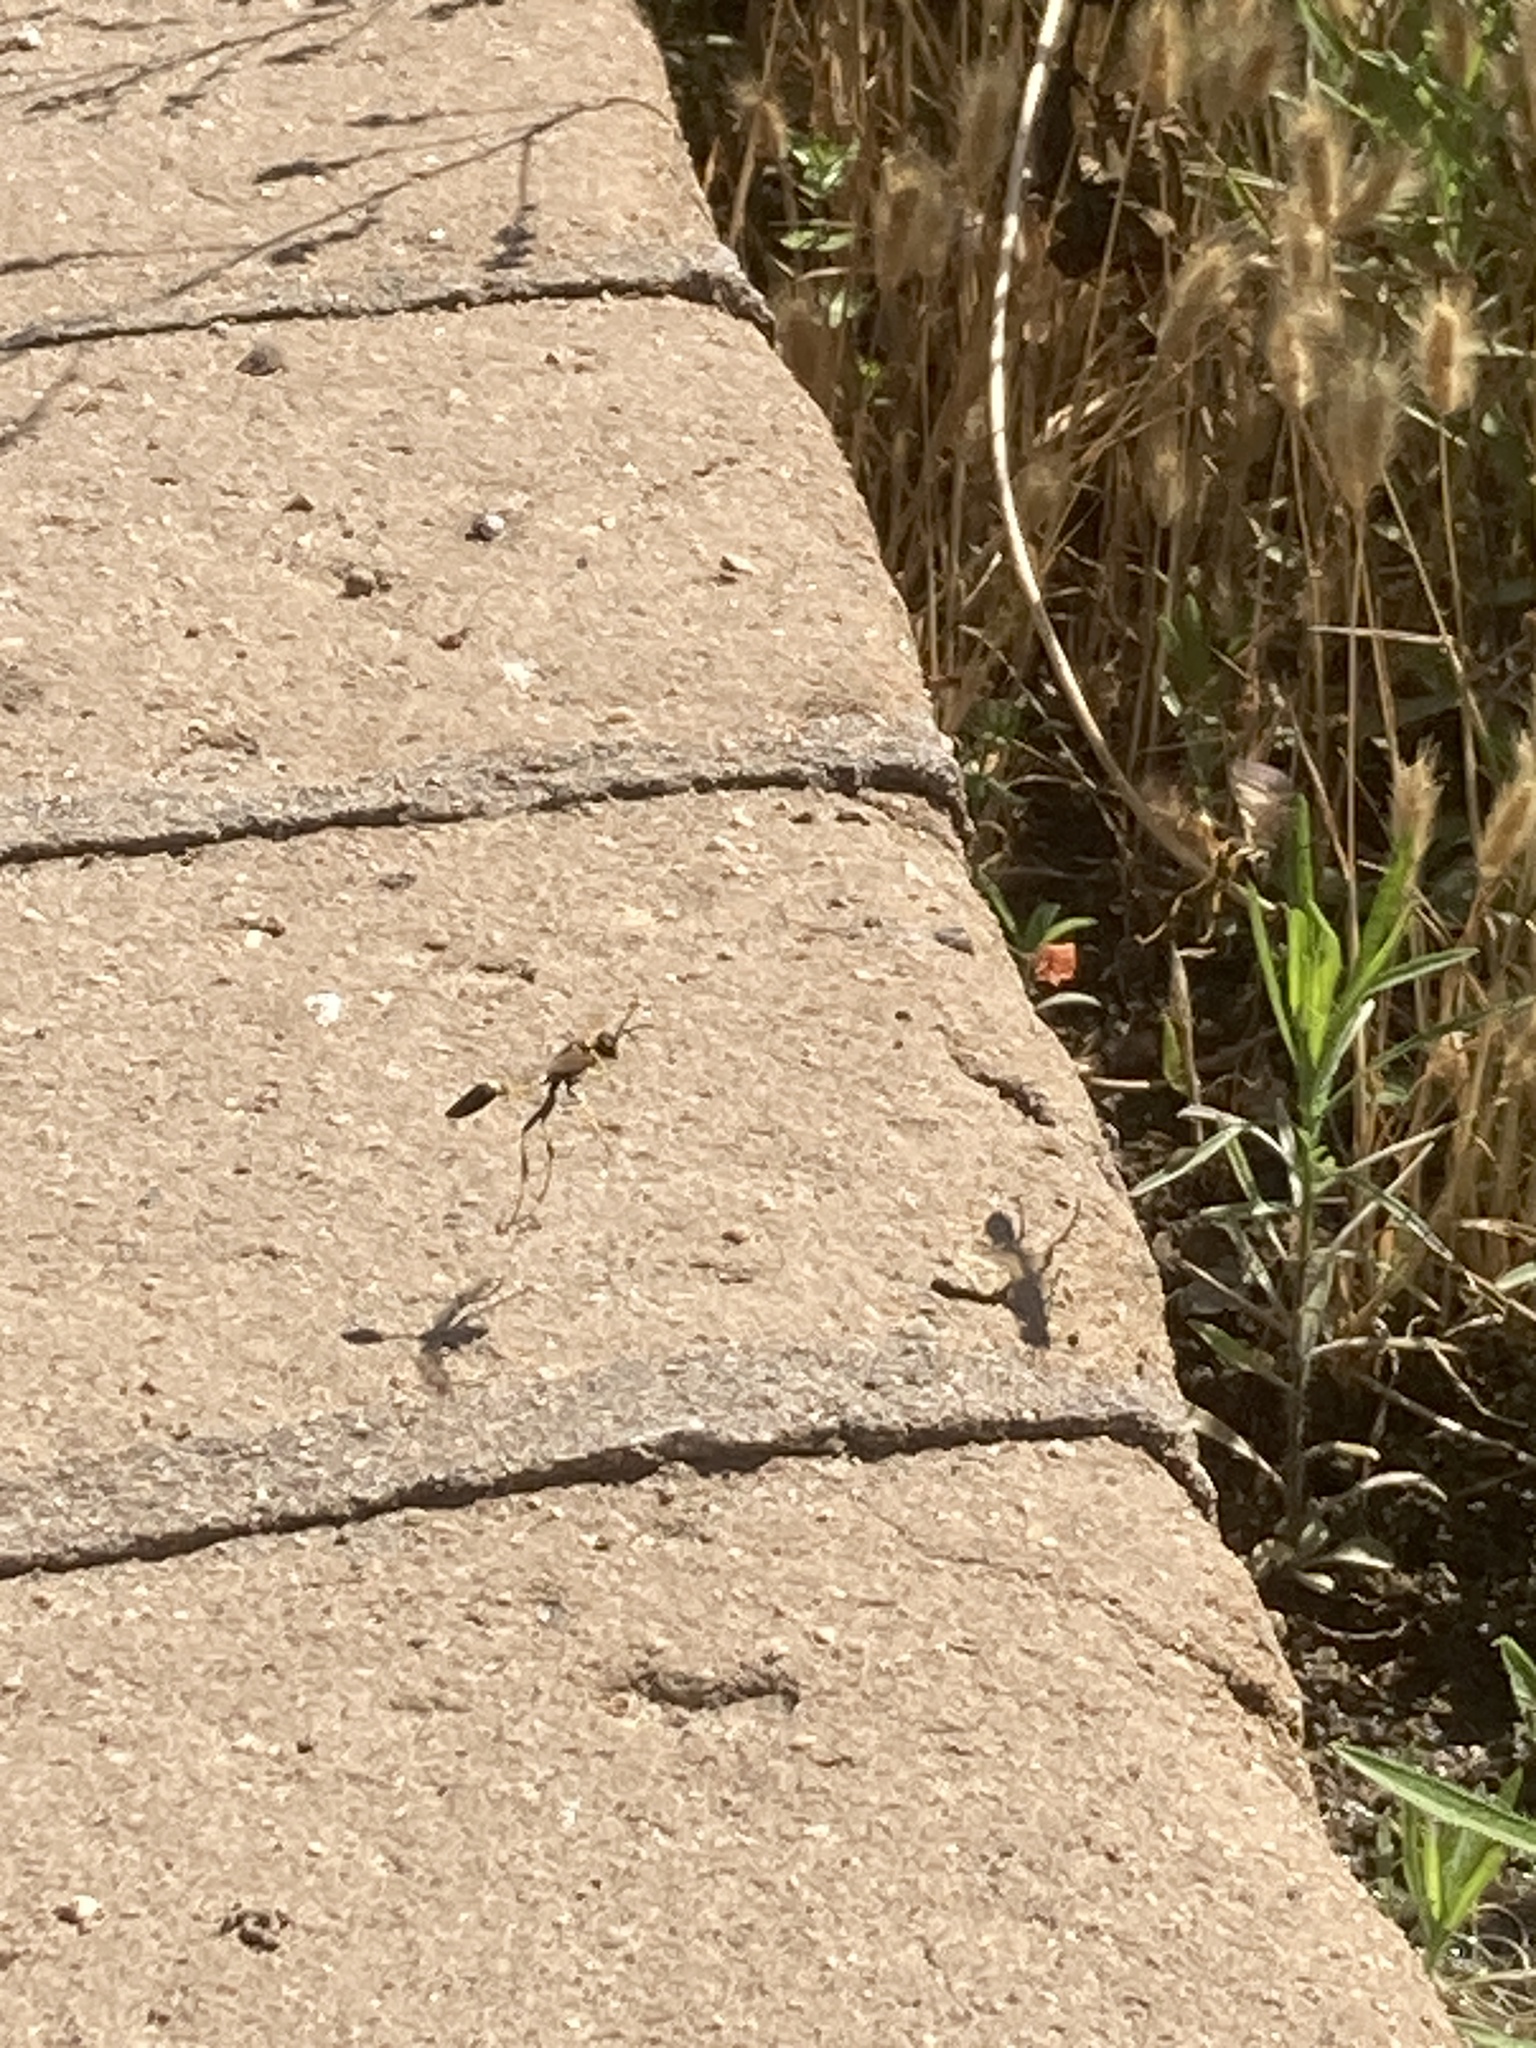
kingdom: Animalia
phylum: Arthropoda
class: Insecta
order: Hymenoptera
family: Sphecidae
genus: Sceliphron
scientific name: Sceliphron caementarium
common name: Mud dauber
